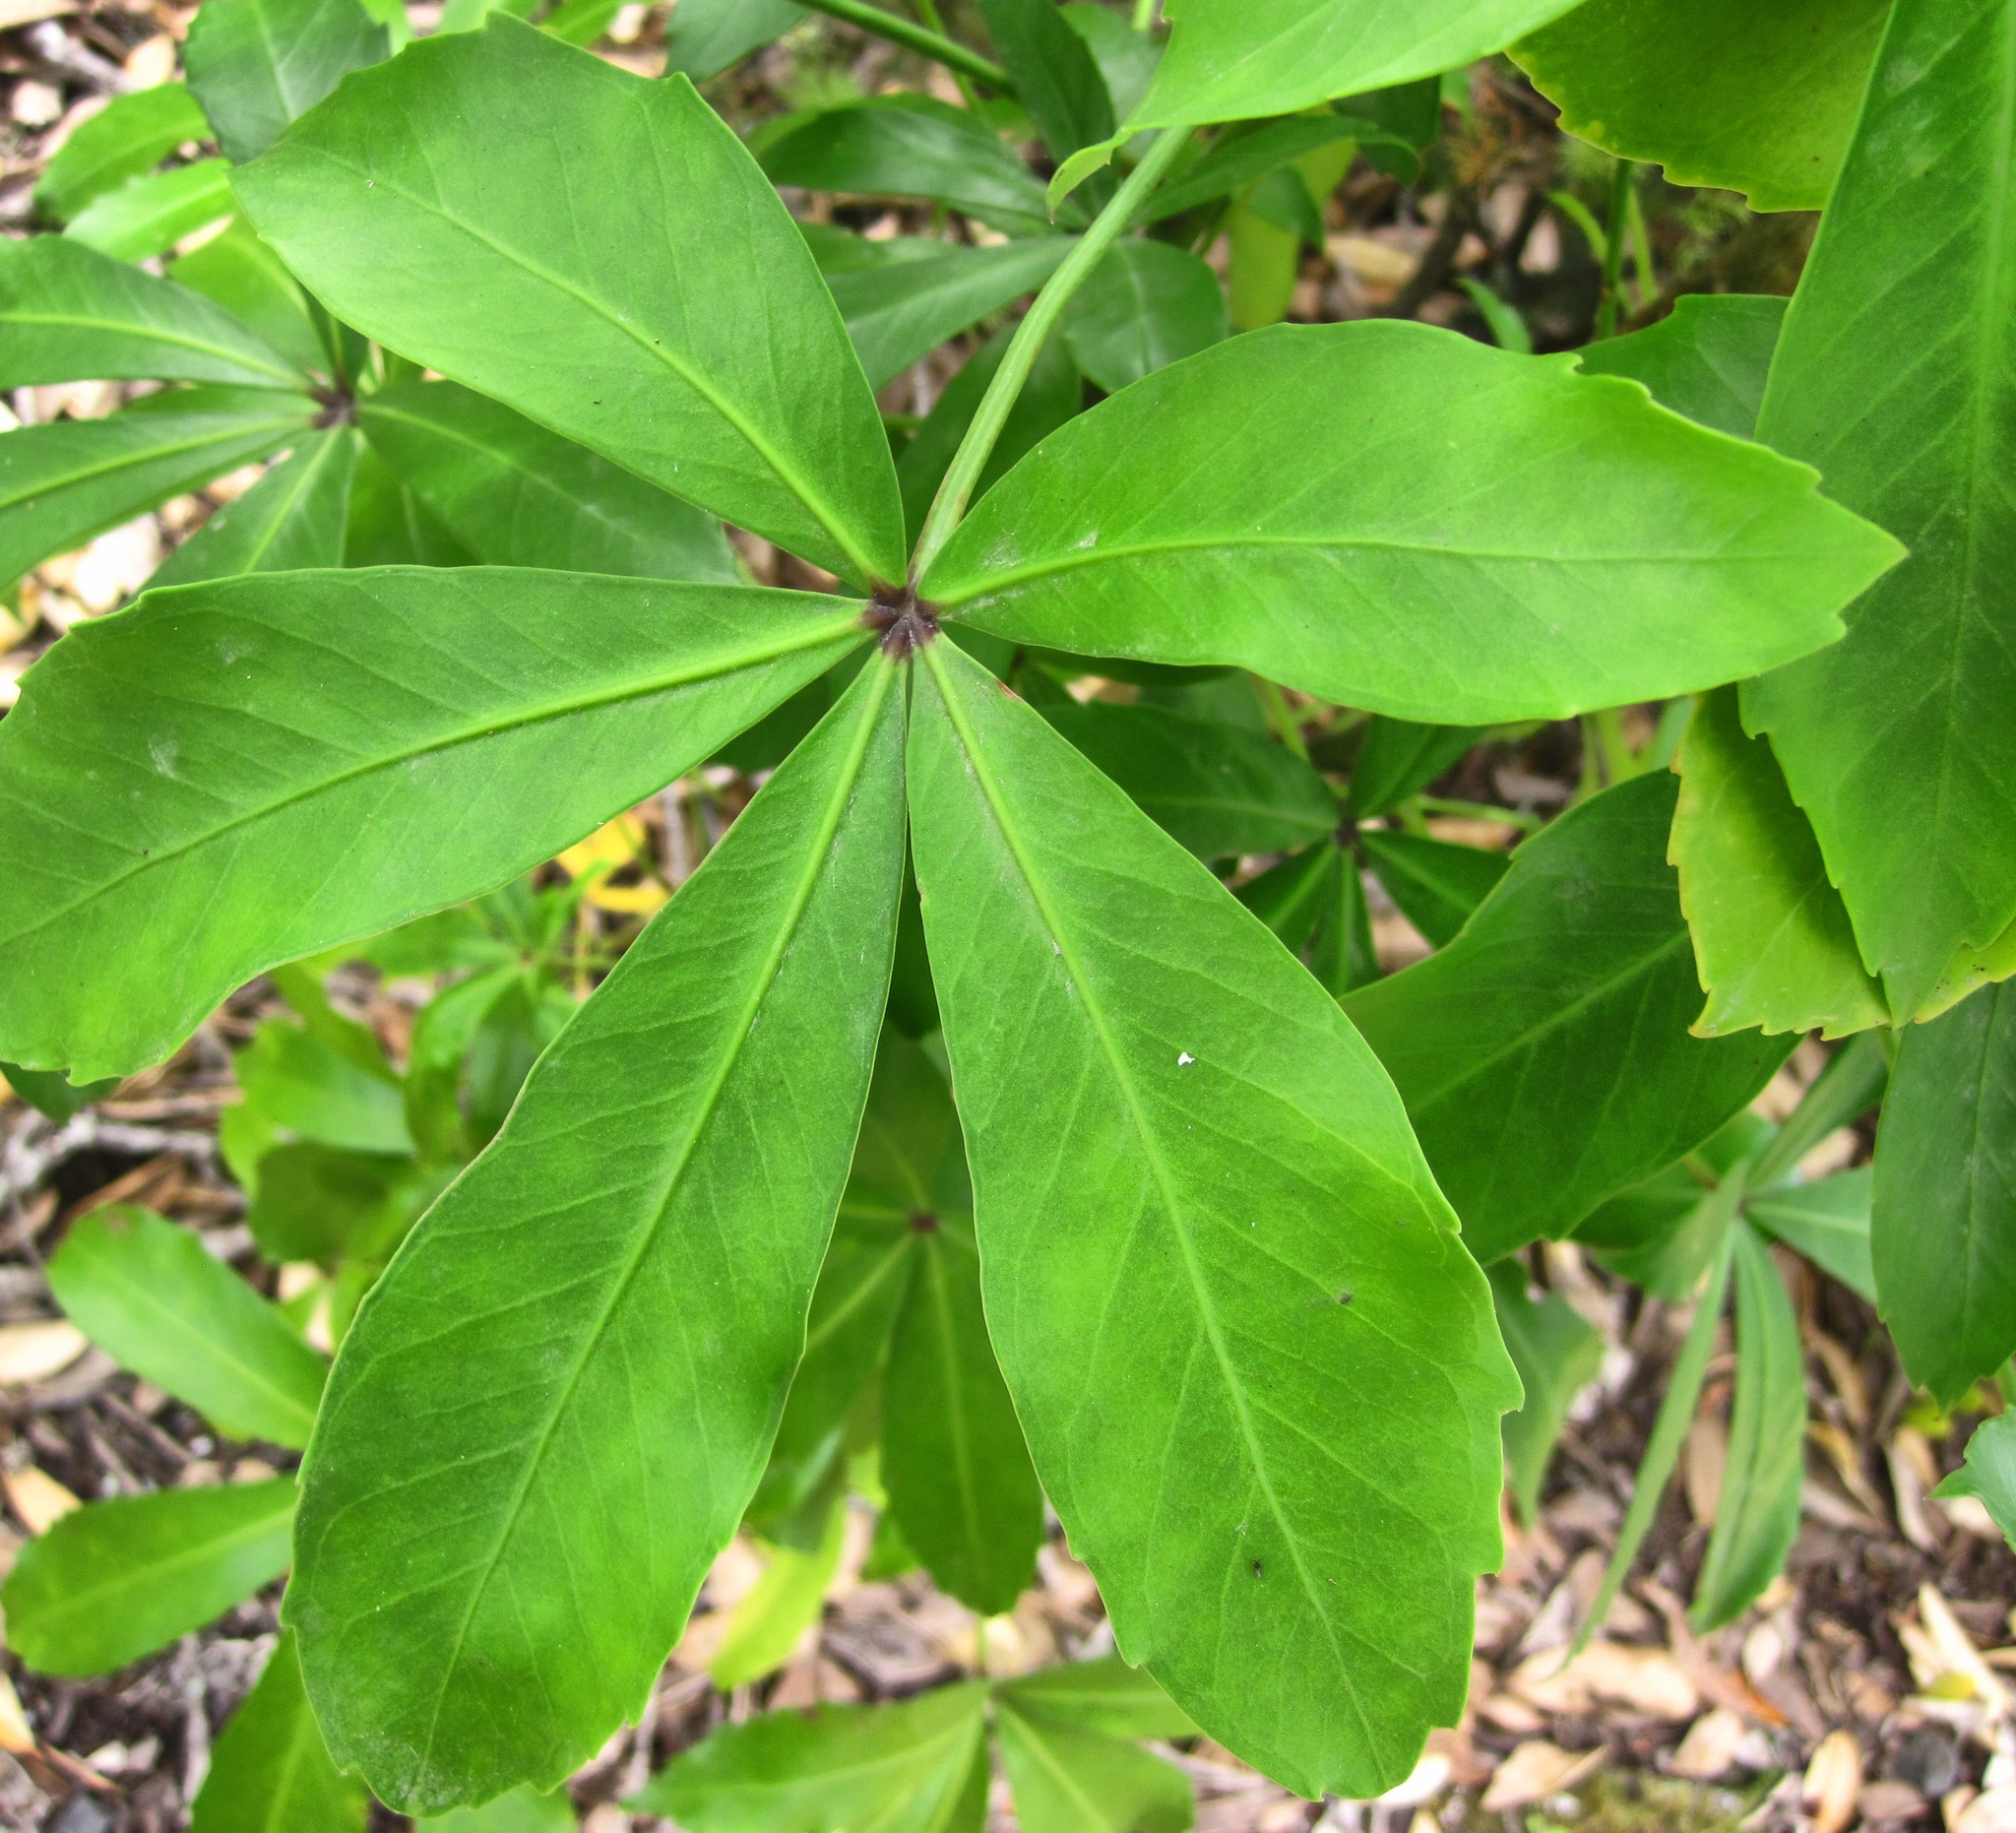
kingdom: Plantae
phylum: Tracheophyta
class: Magnoliopsida
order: Apiales
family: Araliaceae
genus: Pseudopanax
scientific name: Pseudopanax lessonii
